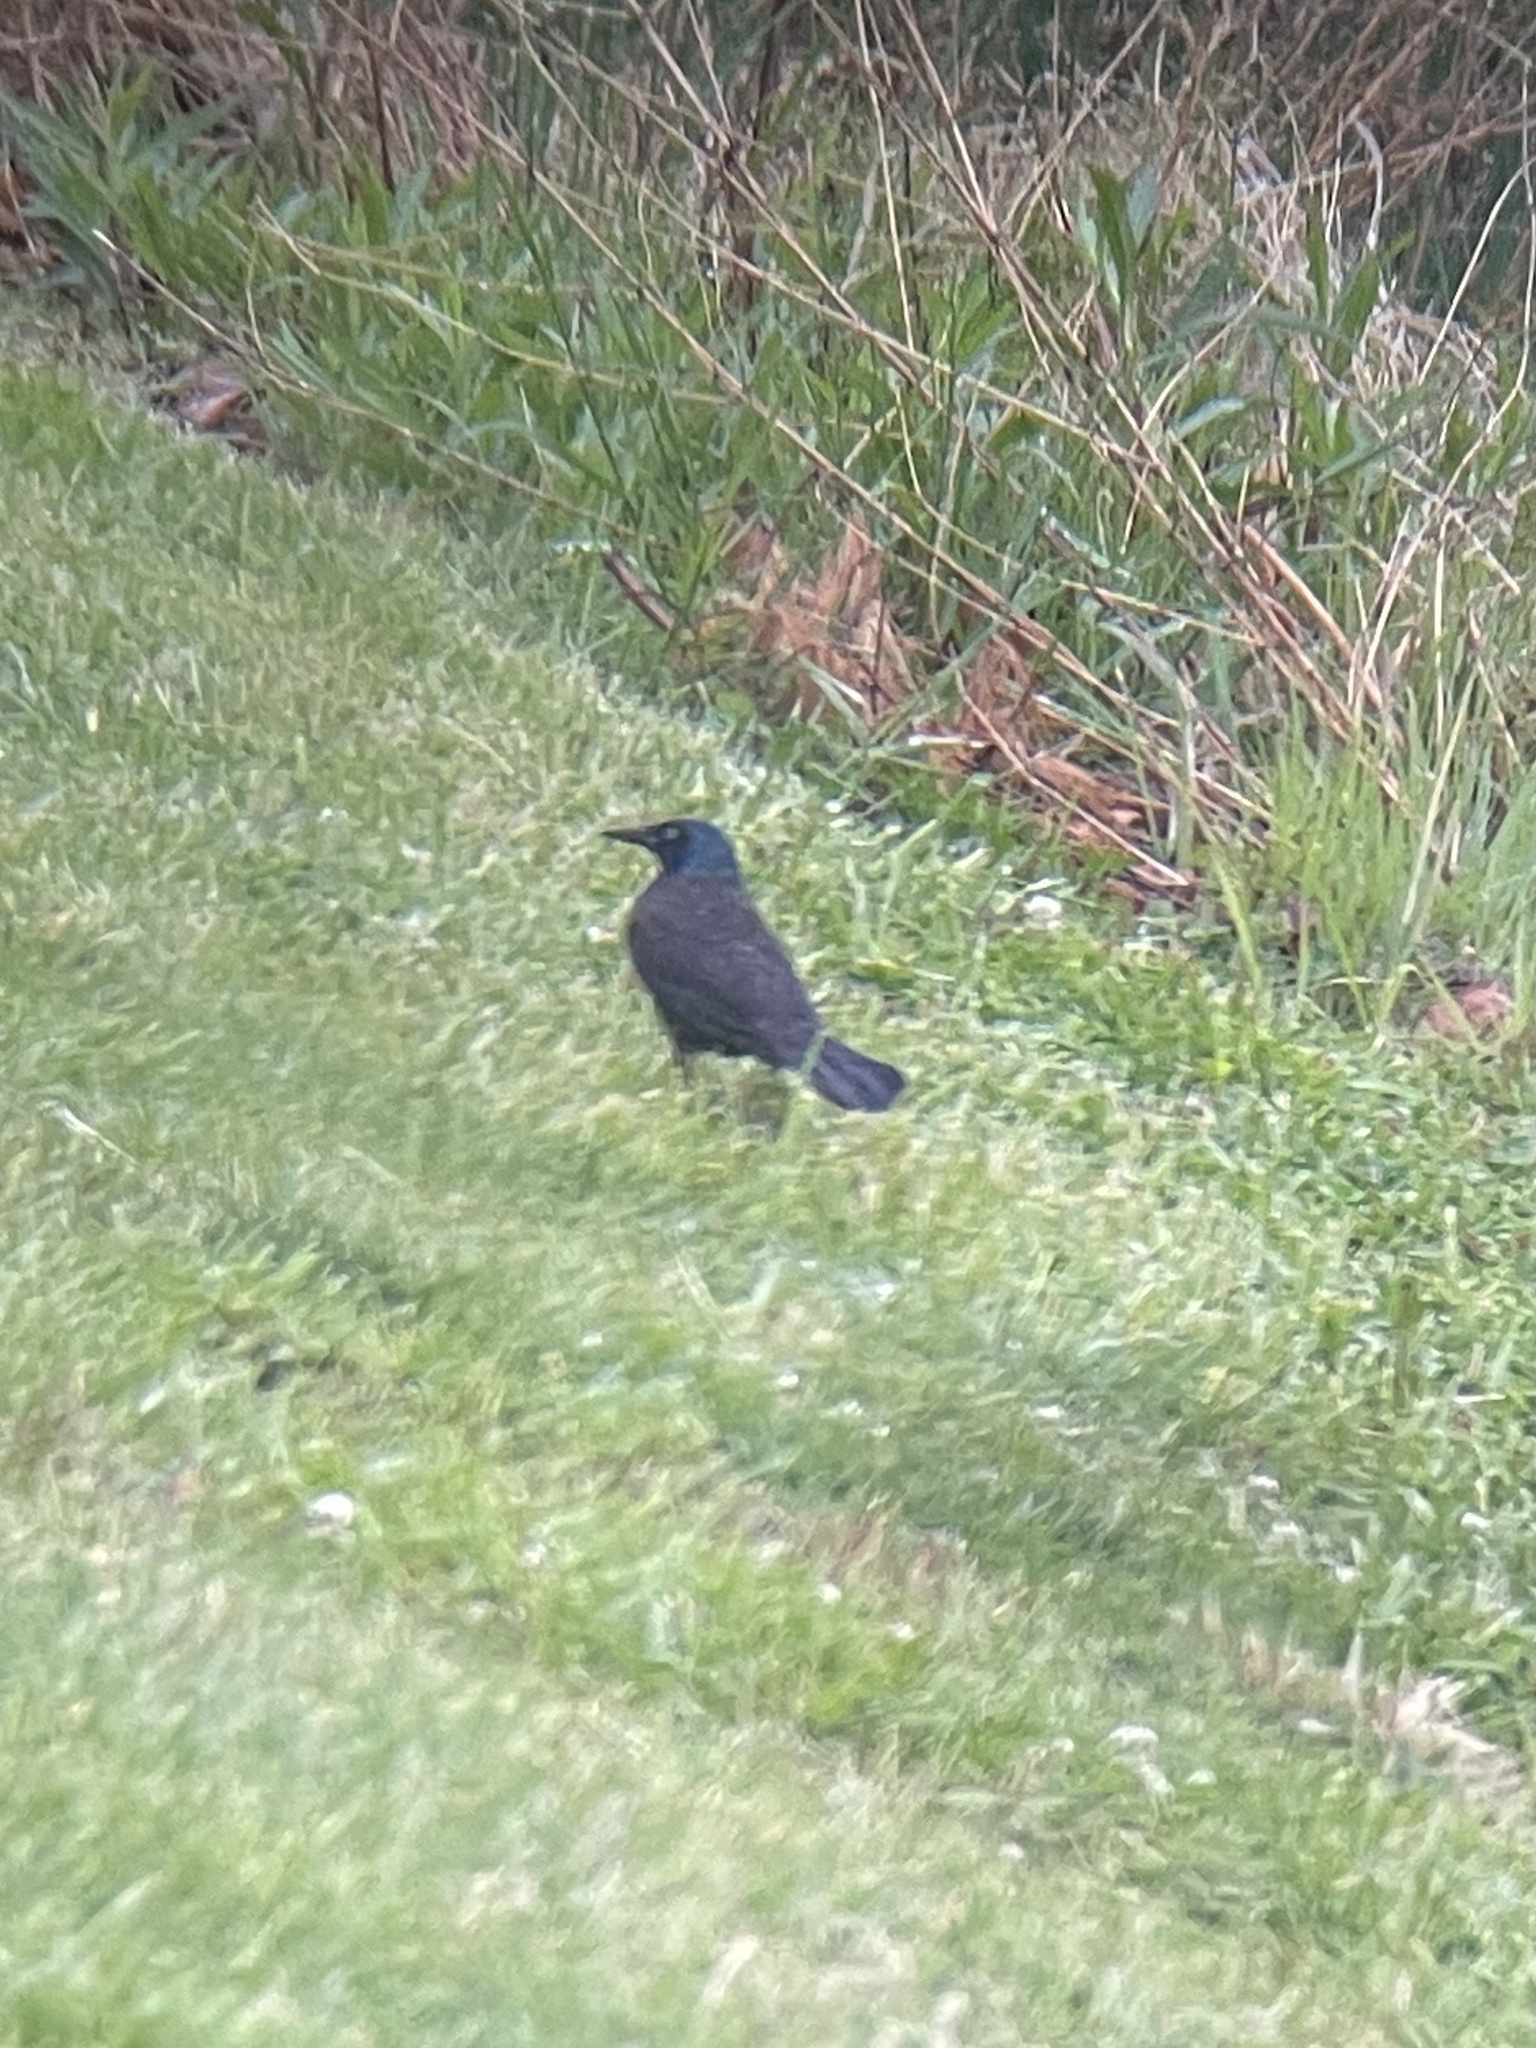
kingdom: Animalia
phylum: Chordata
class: Aves
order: Passeriformes
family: Icteridae
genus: Quiscalus
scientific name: Quiscalus quiscula
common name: Common grackle
